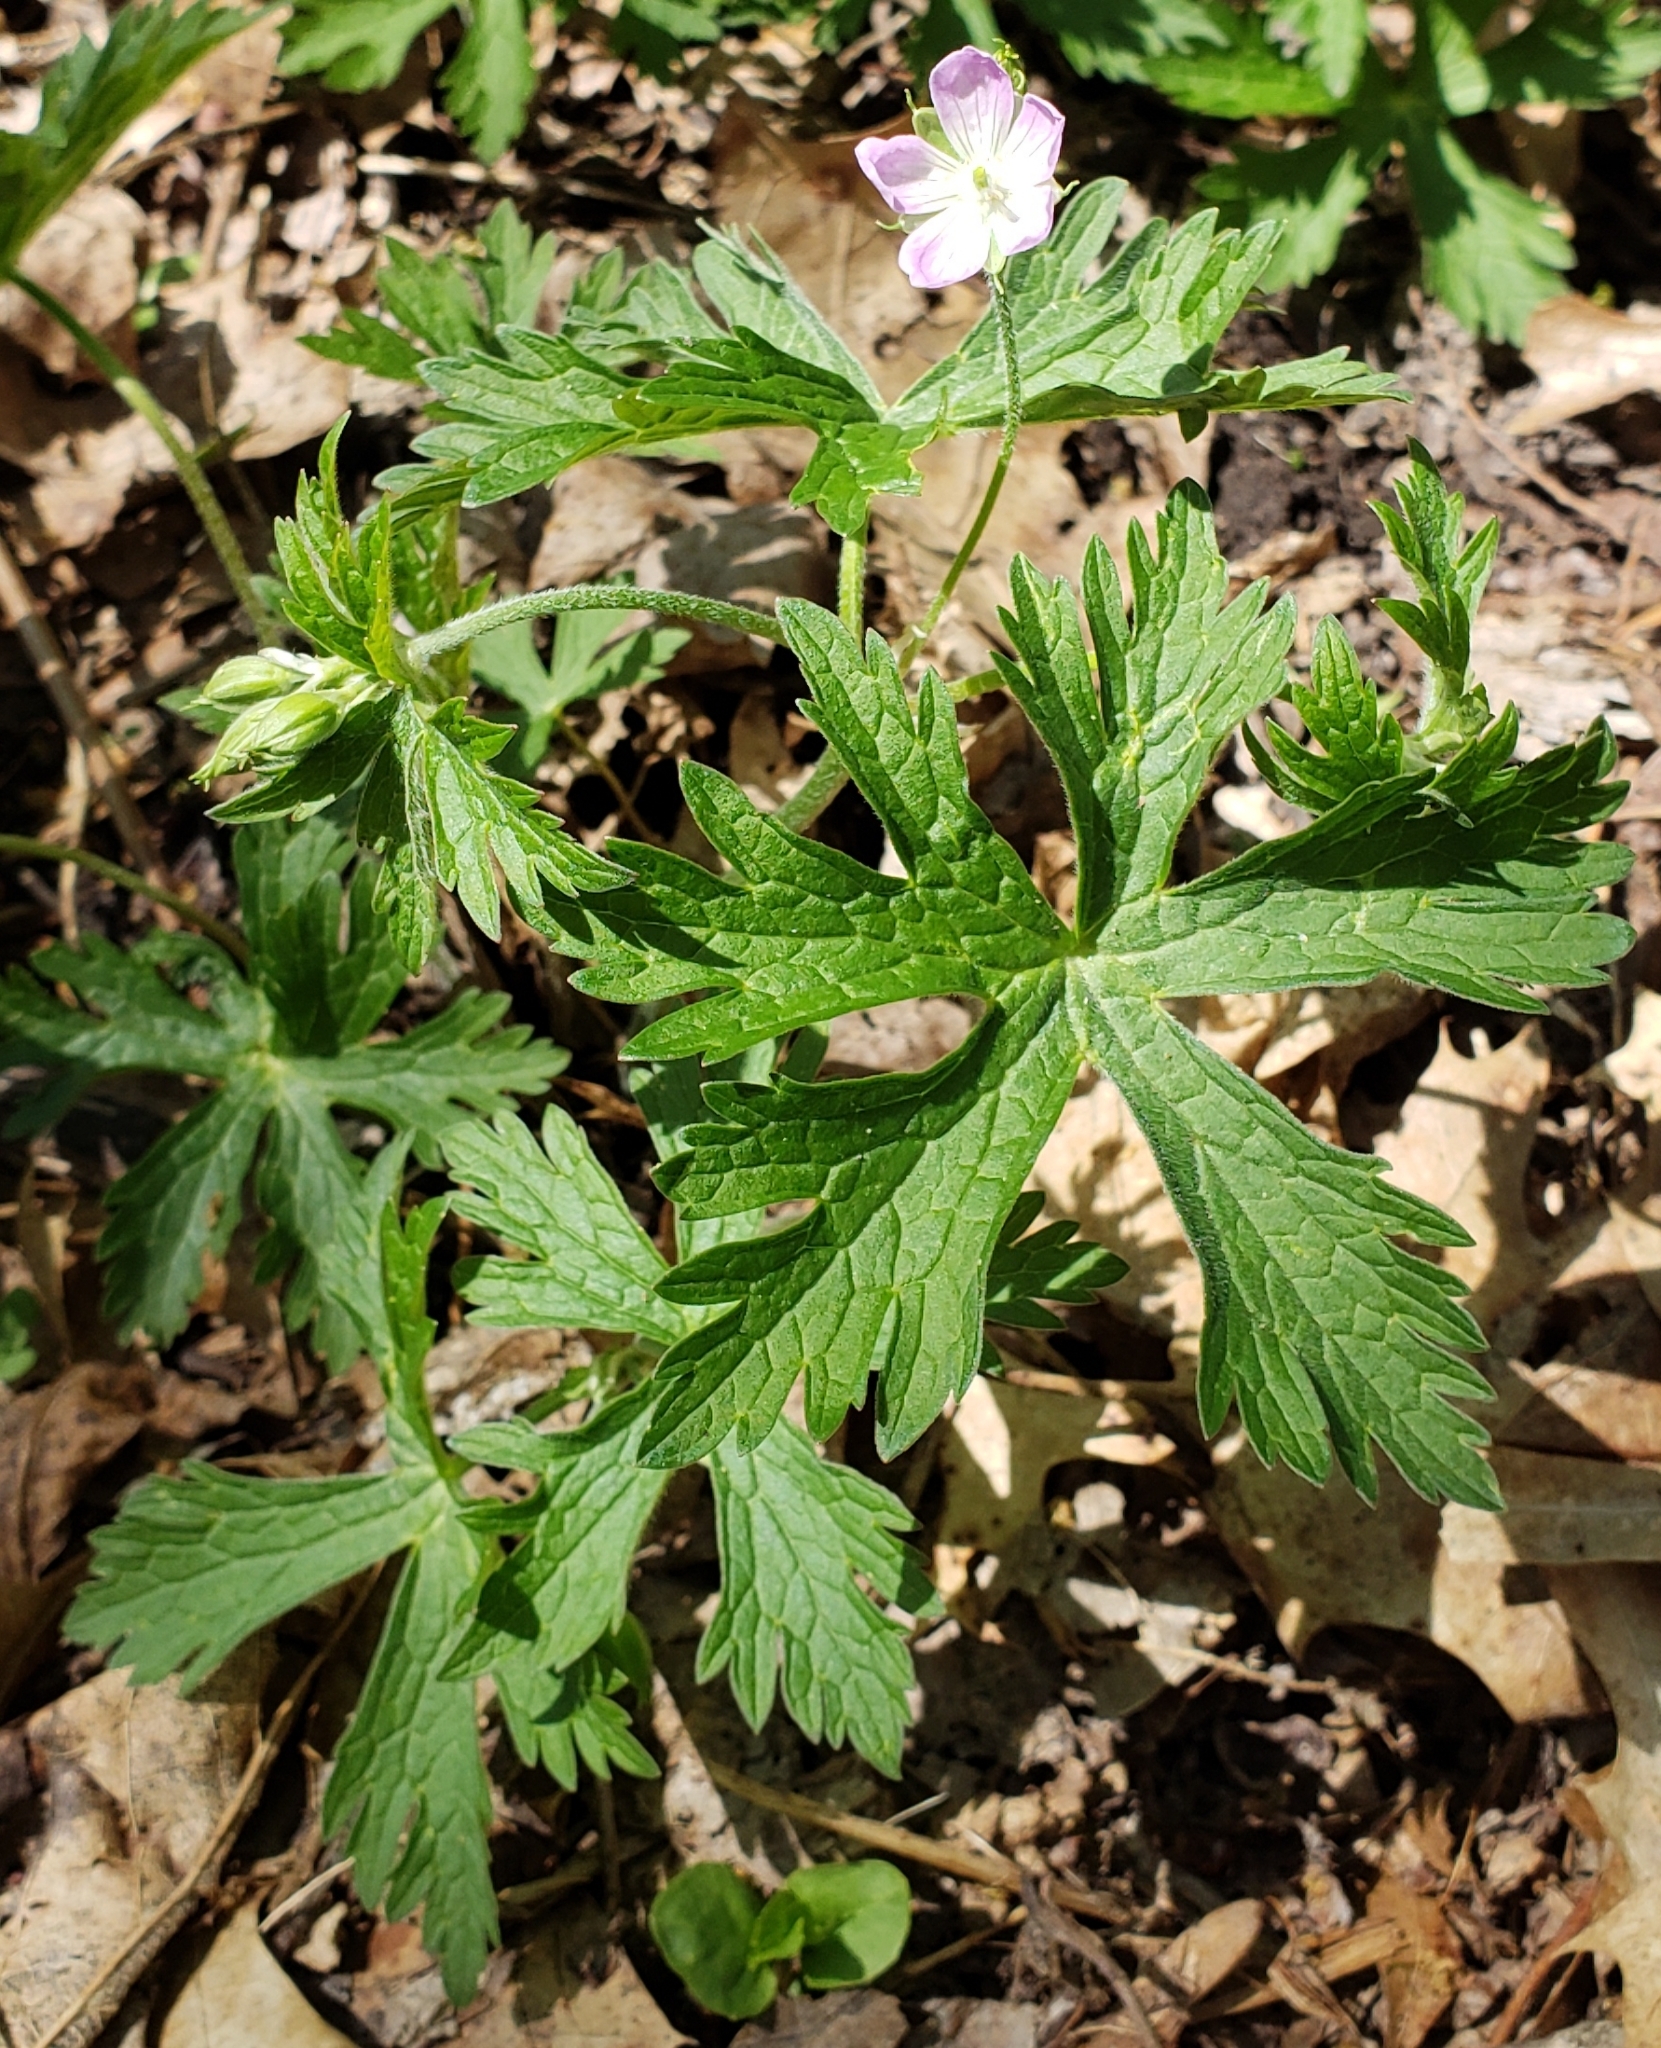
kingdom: Plantae
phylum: Tracheophyta
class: Magnoliopsida
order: Geraniales
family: Geraniaceae
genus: Geranium
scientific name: Geranium maculatum
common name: Spotted geranium
